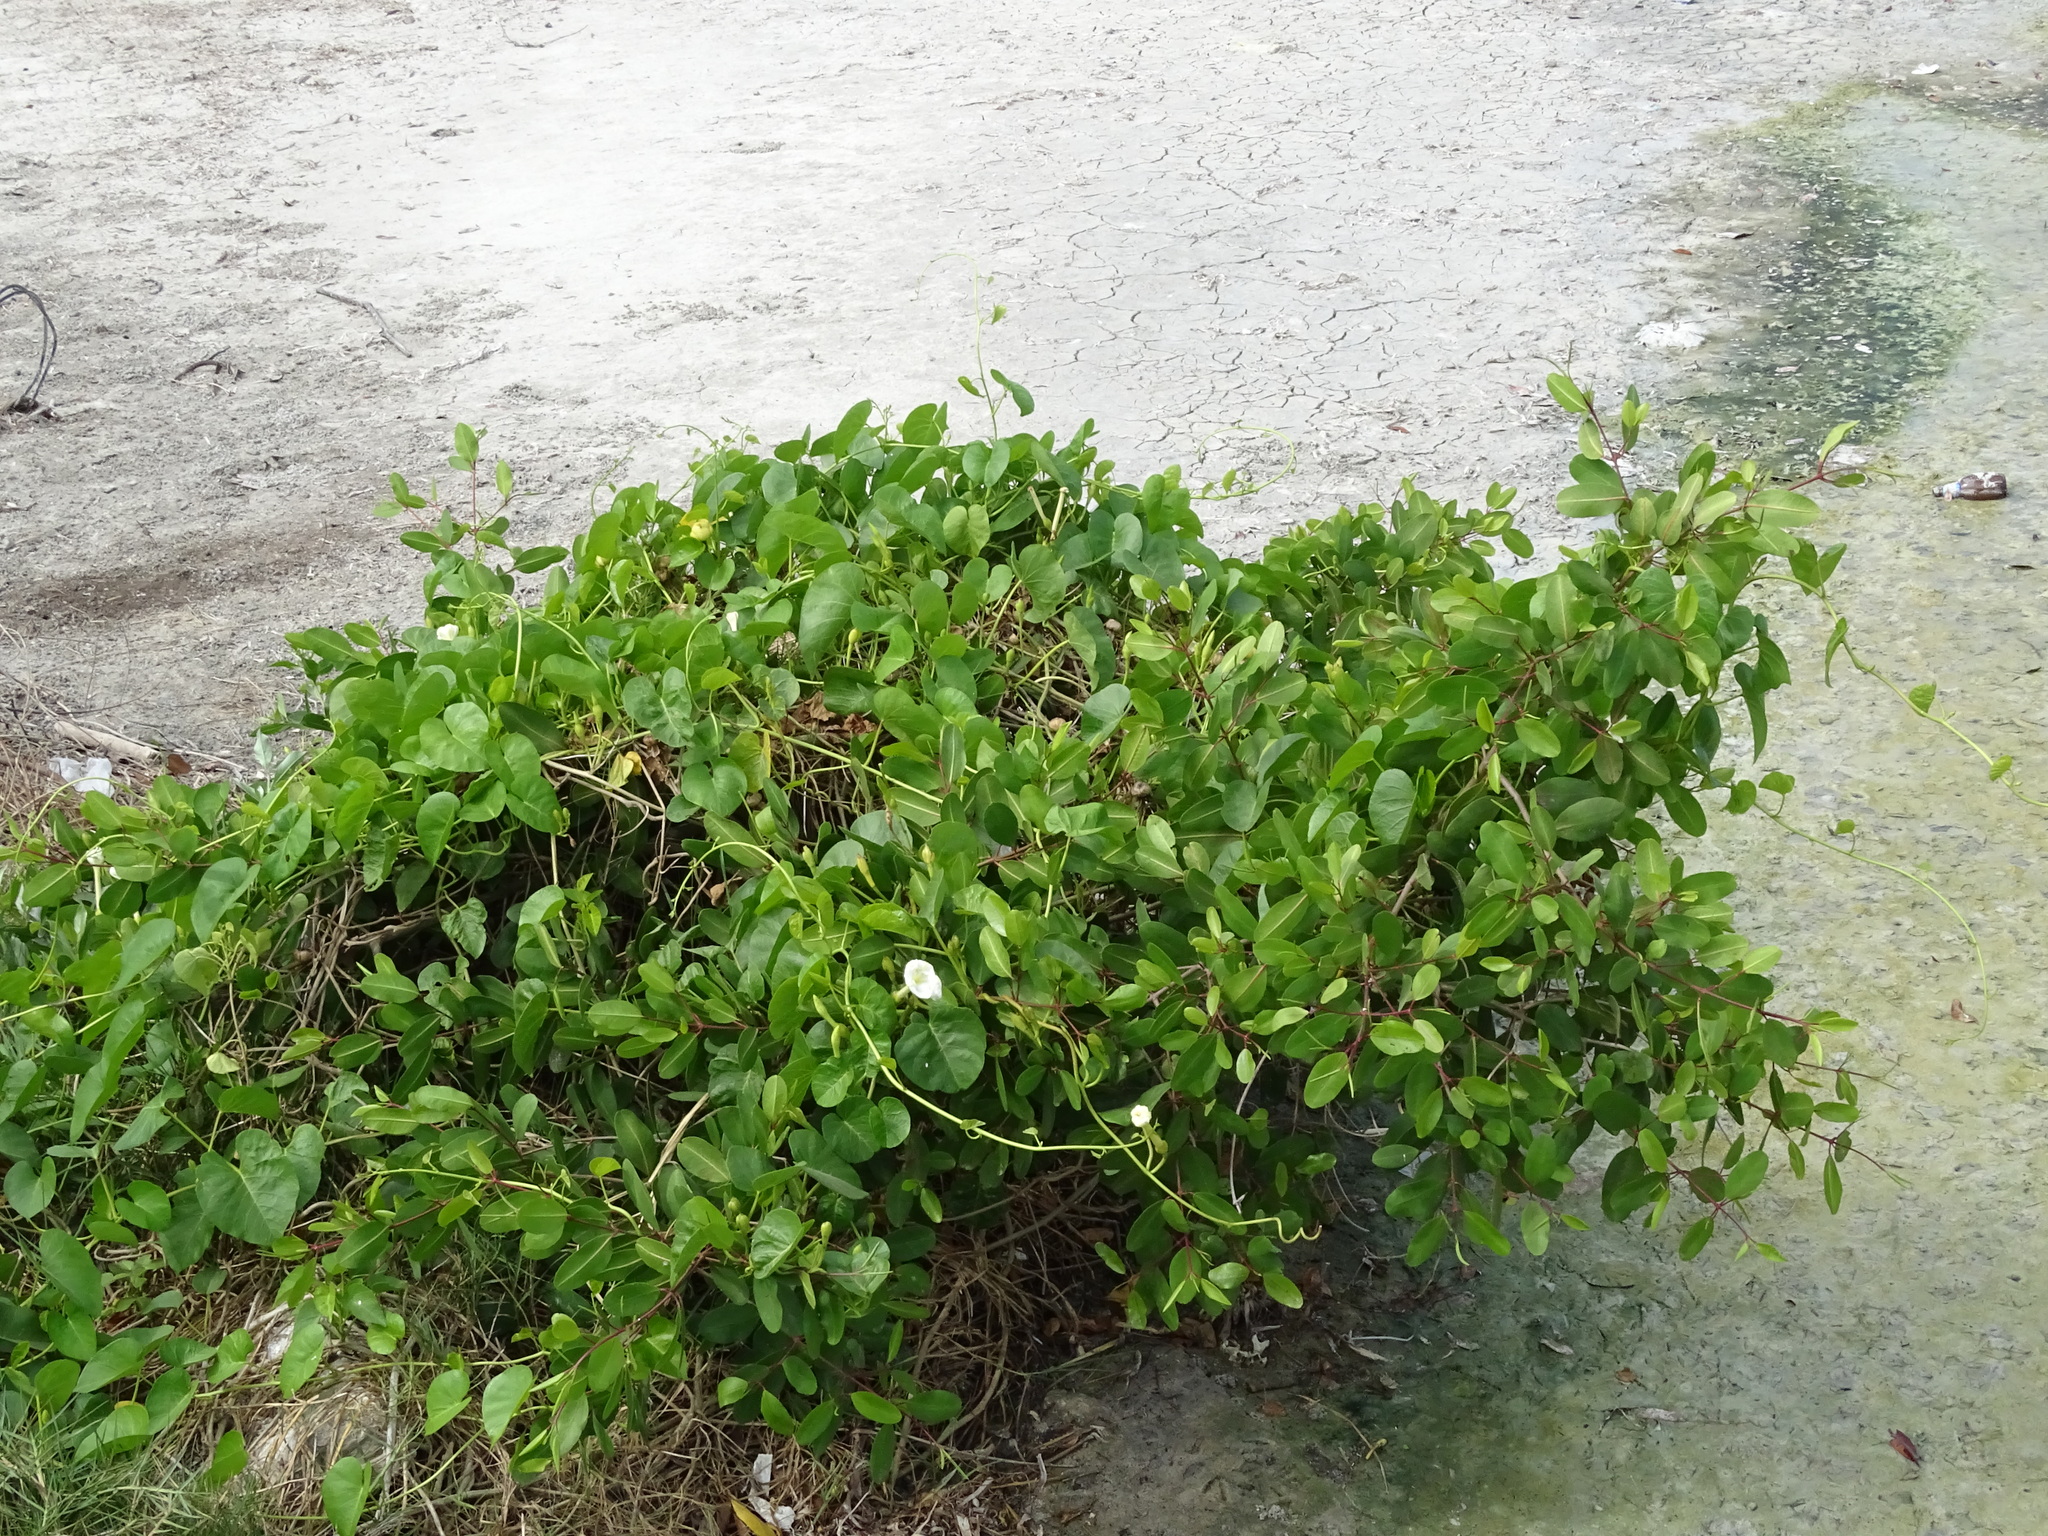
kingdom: Plantae
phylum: Tracheophyta
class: Magnoliopsida
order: Solanales
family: Convolvulaceae
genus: Ipomoea
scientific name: Ipomoea violacea
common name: Beach moonflower
